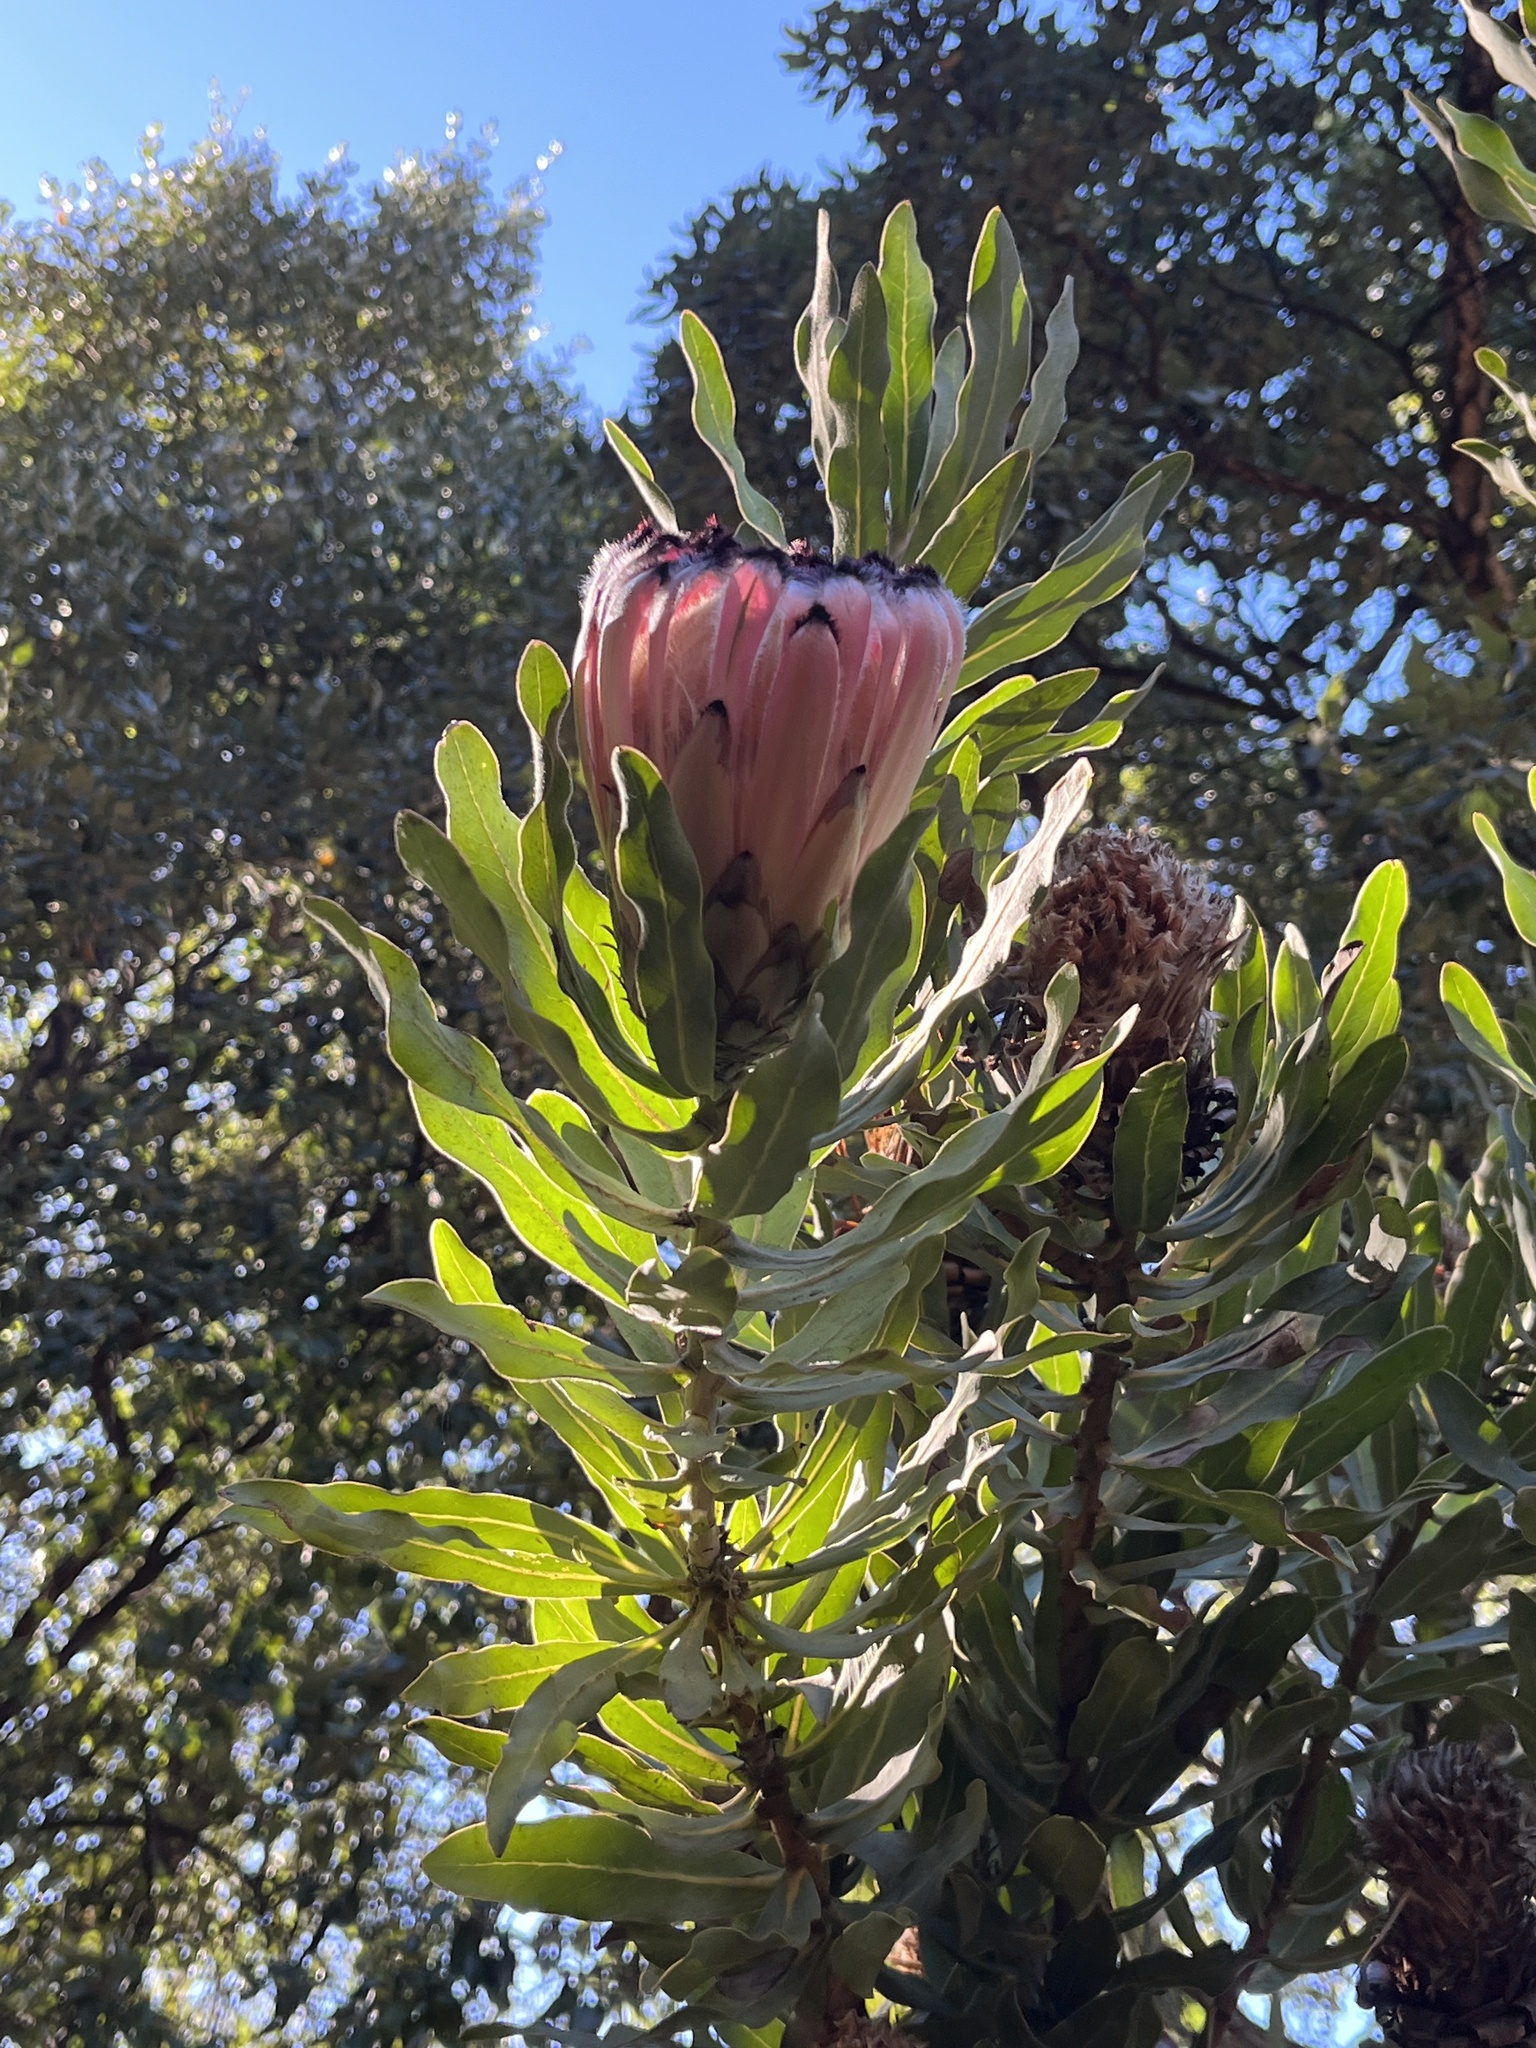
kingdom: Plantae
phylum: Tracheophyta
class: Magnoliopsida
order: Proteales
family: Proteaceae
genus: Protea
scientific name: Protea neriifolia
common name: Blue sugarbush
